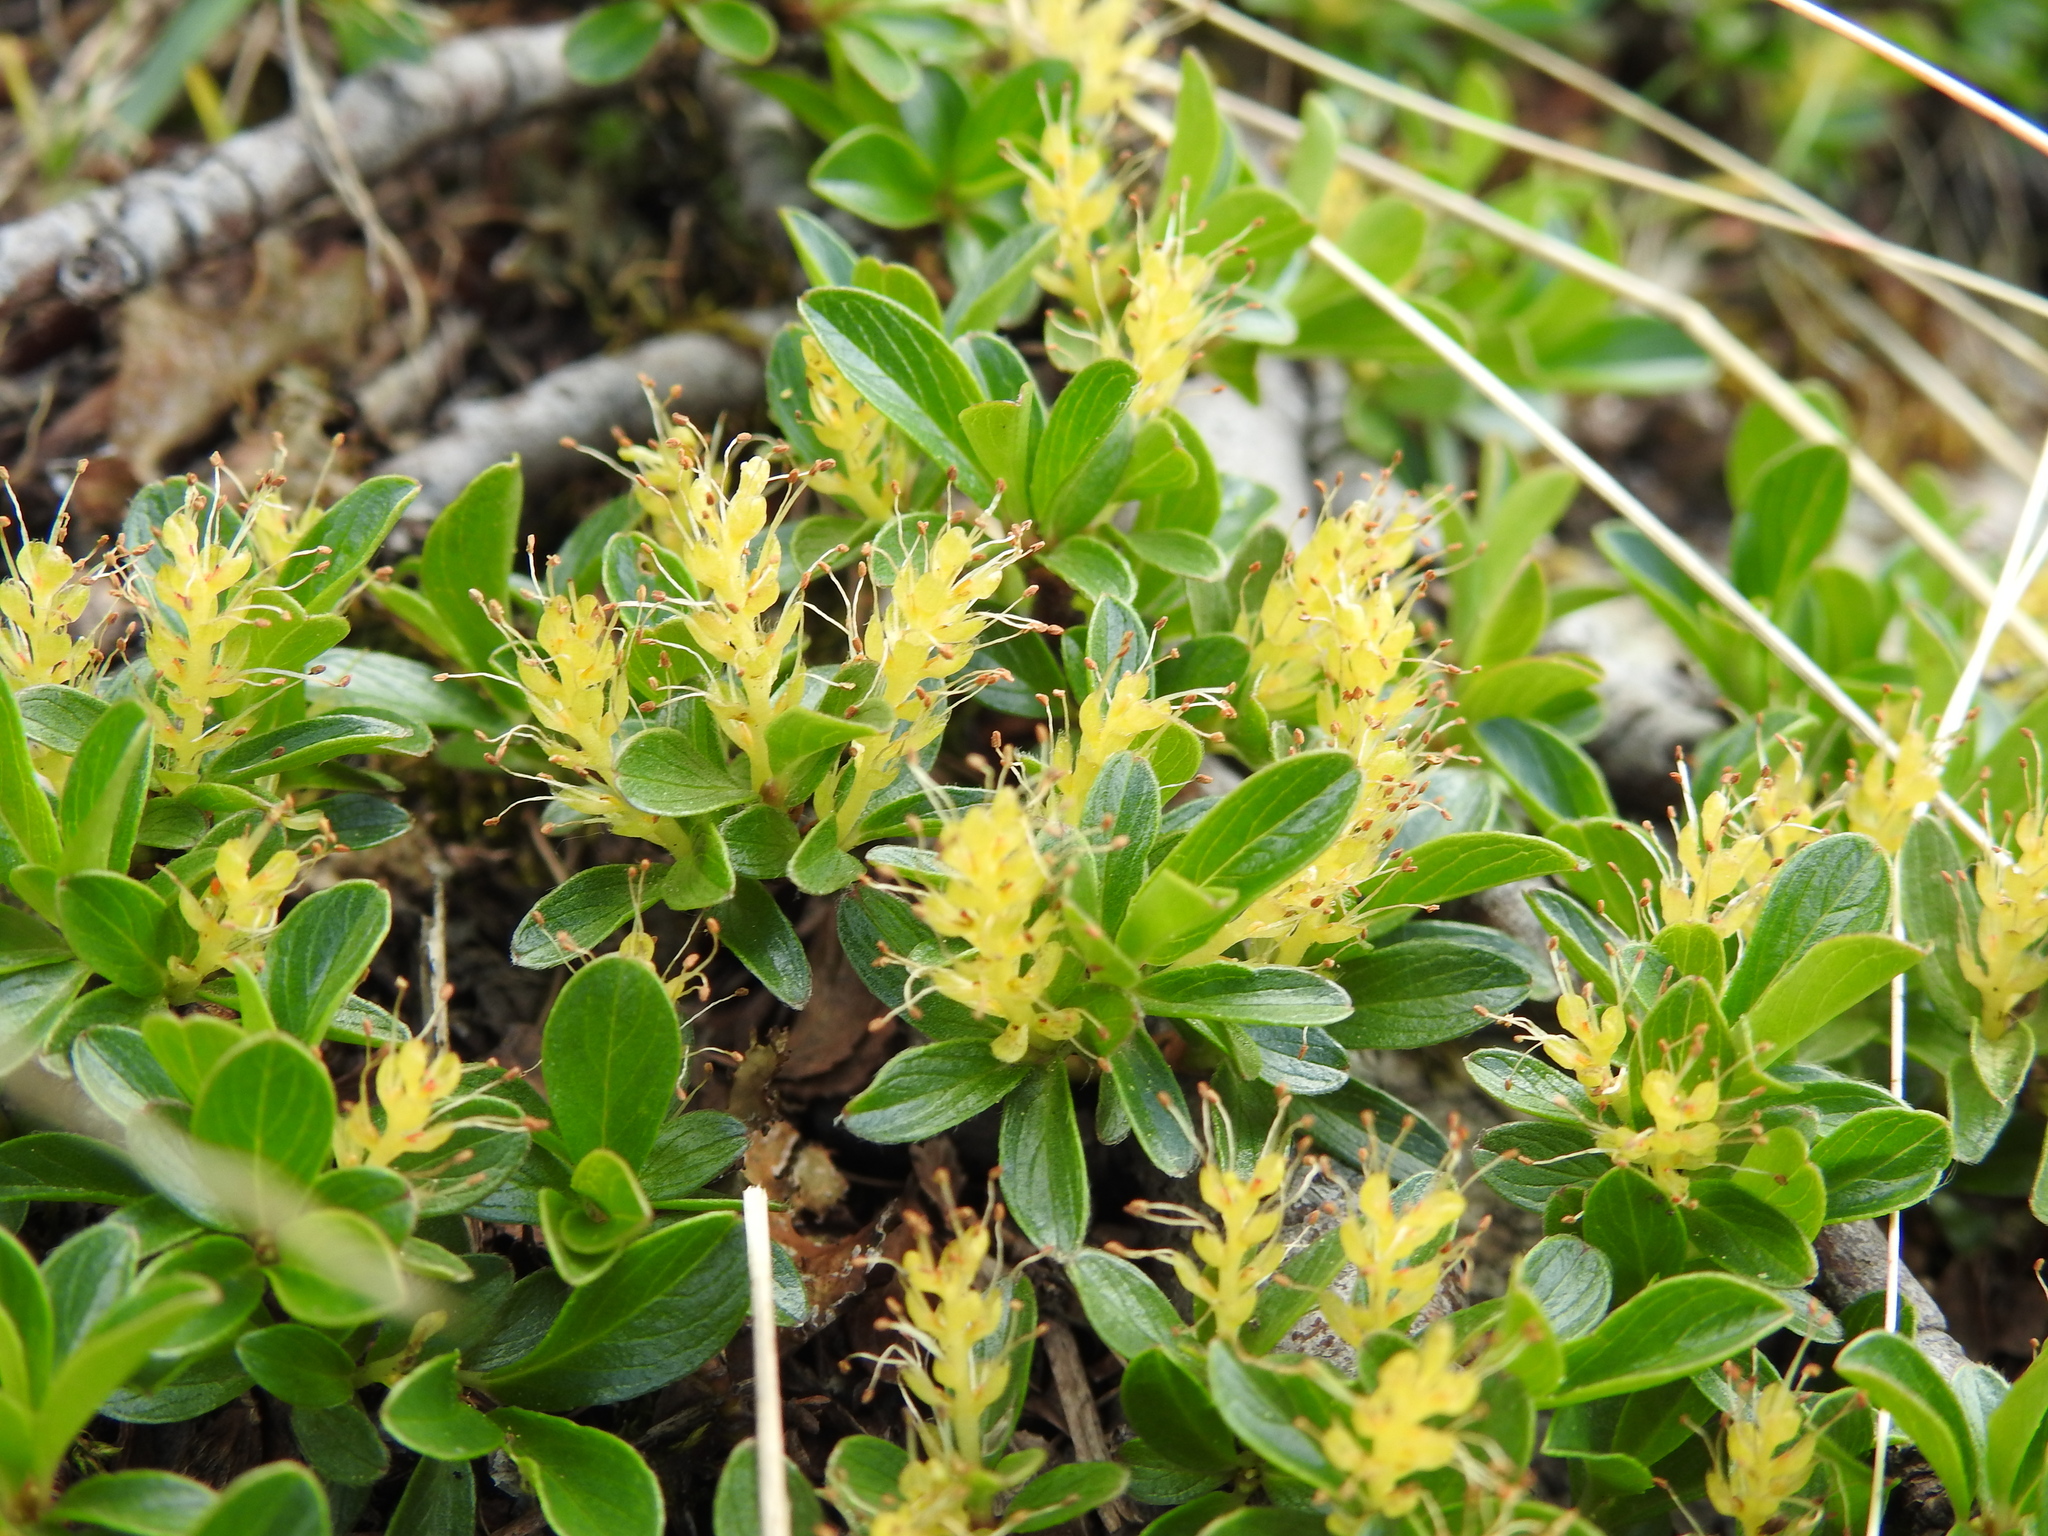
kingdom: Plantae
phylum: Tracheophyta
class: Magnoliopsida
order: Malpighiales
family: Salicaceae
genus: Salix
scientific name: Salix retusa
